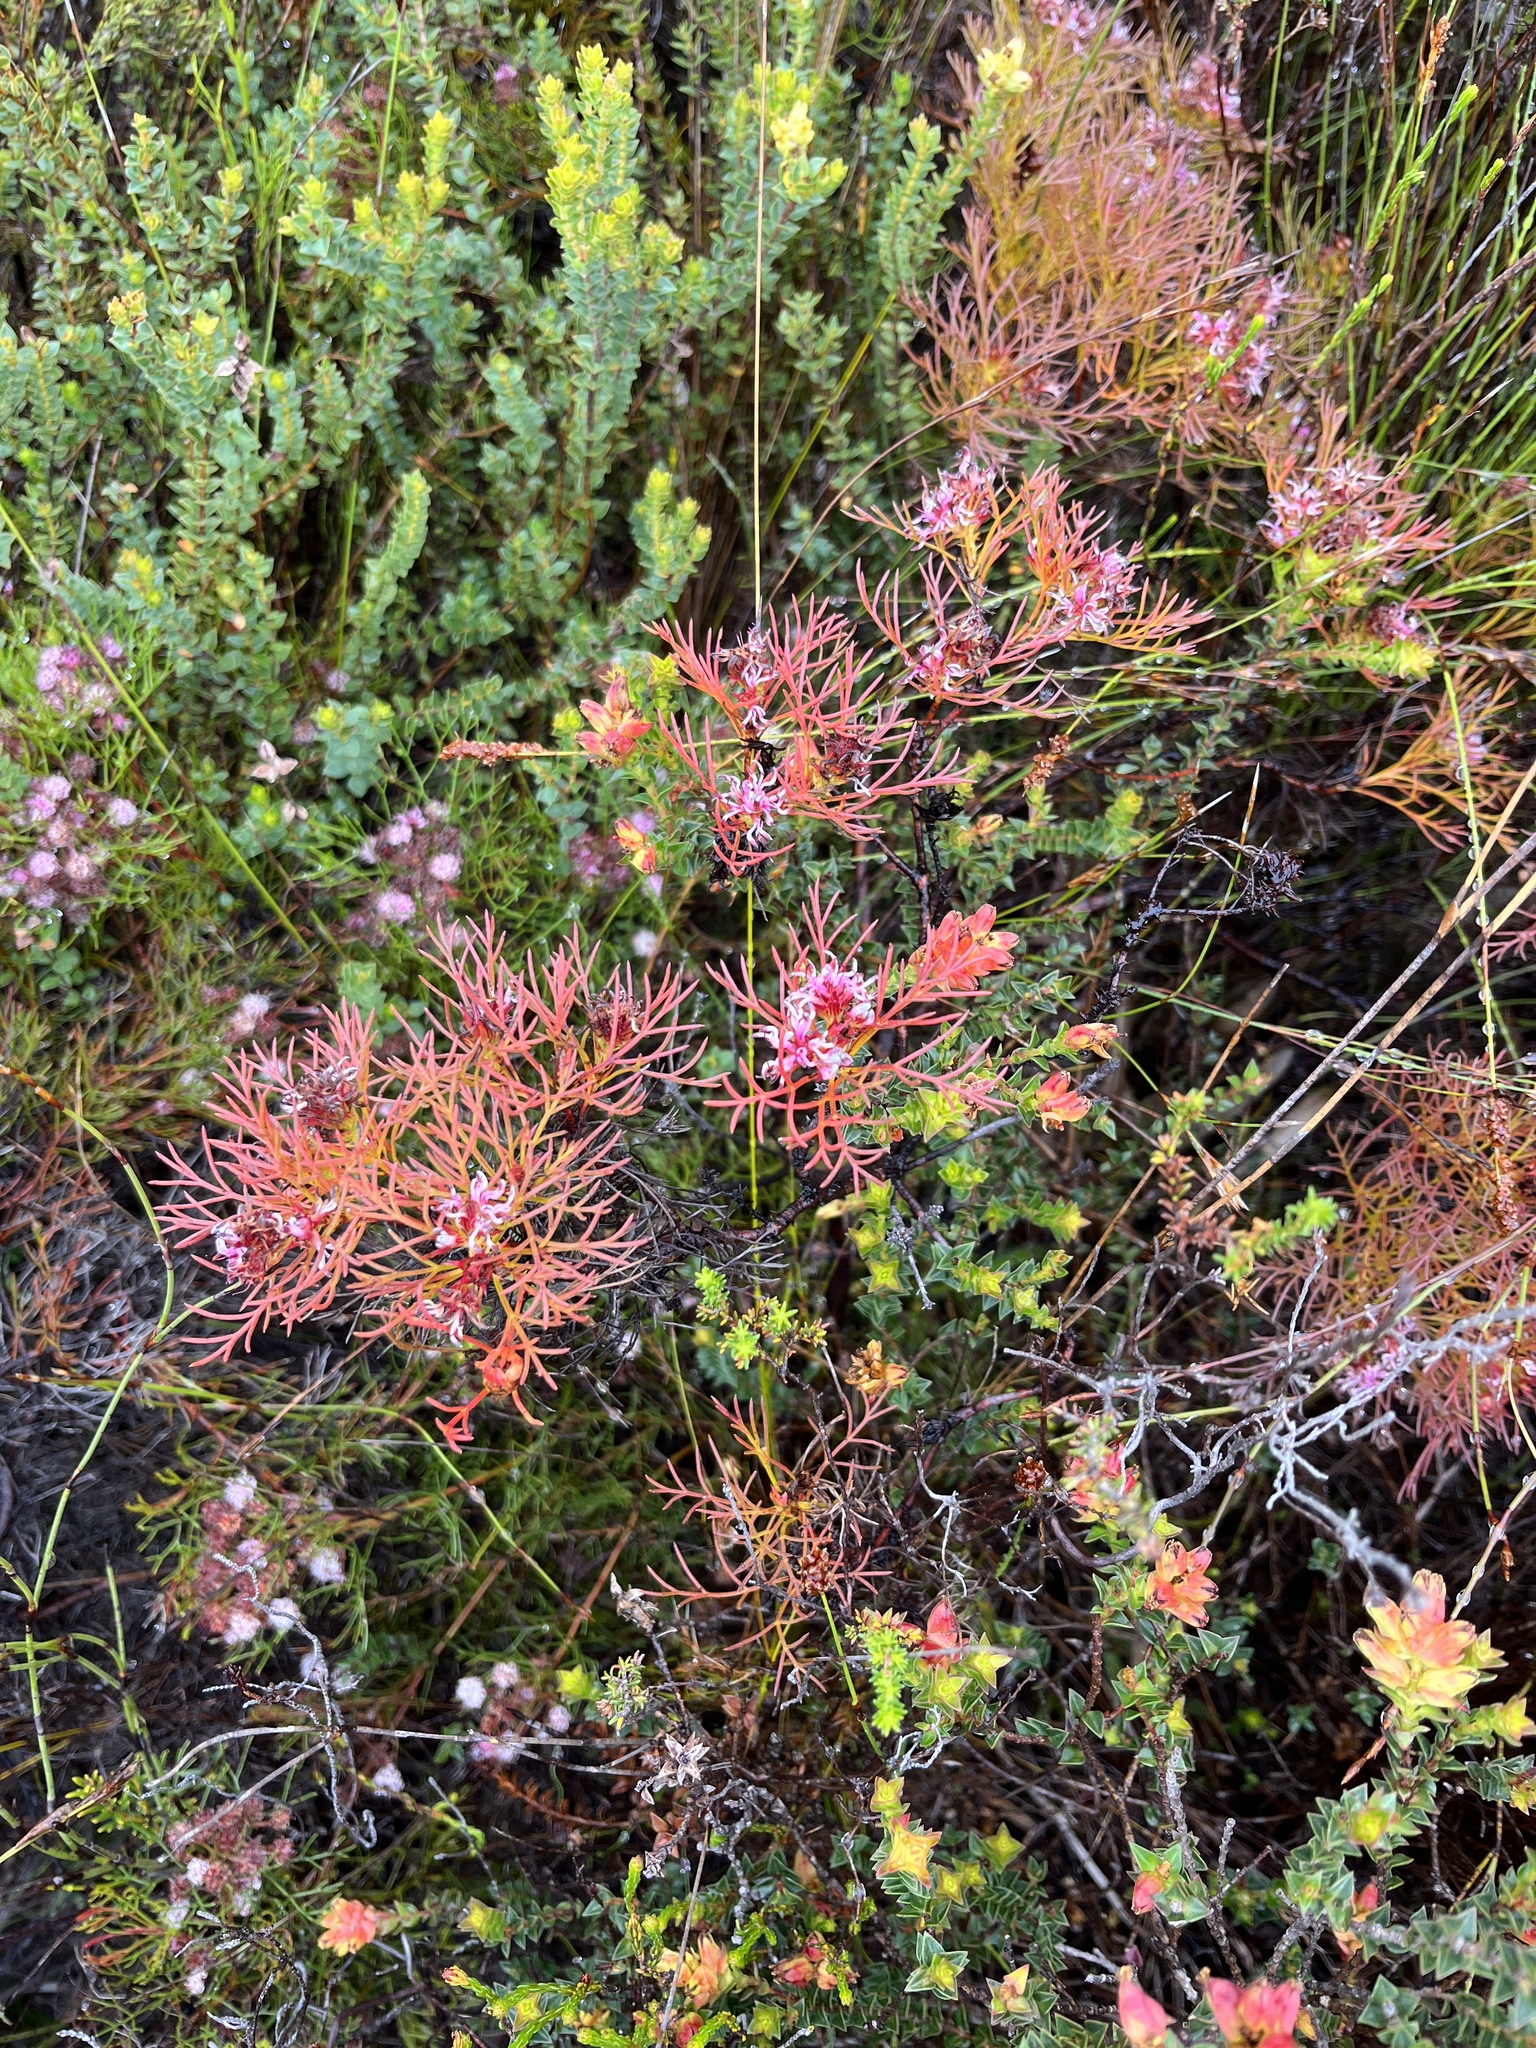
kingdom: Plantae
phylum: Tracheophyta
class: Magnoliopsida
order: Proteales
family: Proteaceae
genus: Serruria
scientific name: Serruria bolusii
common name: Agulhas spiderhead
